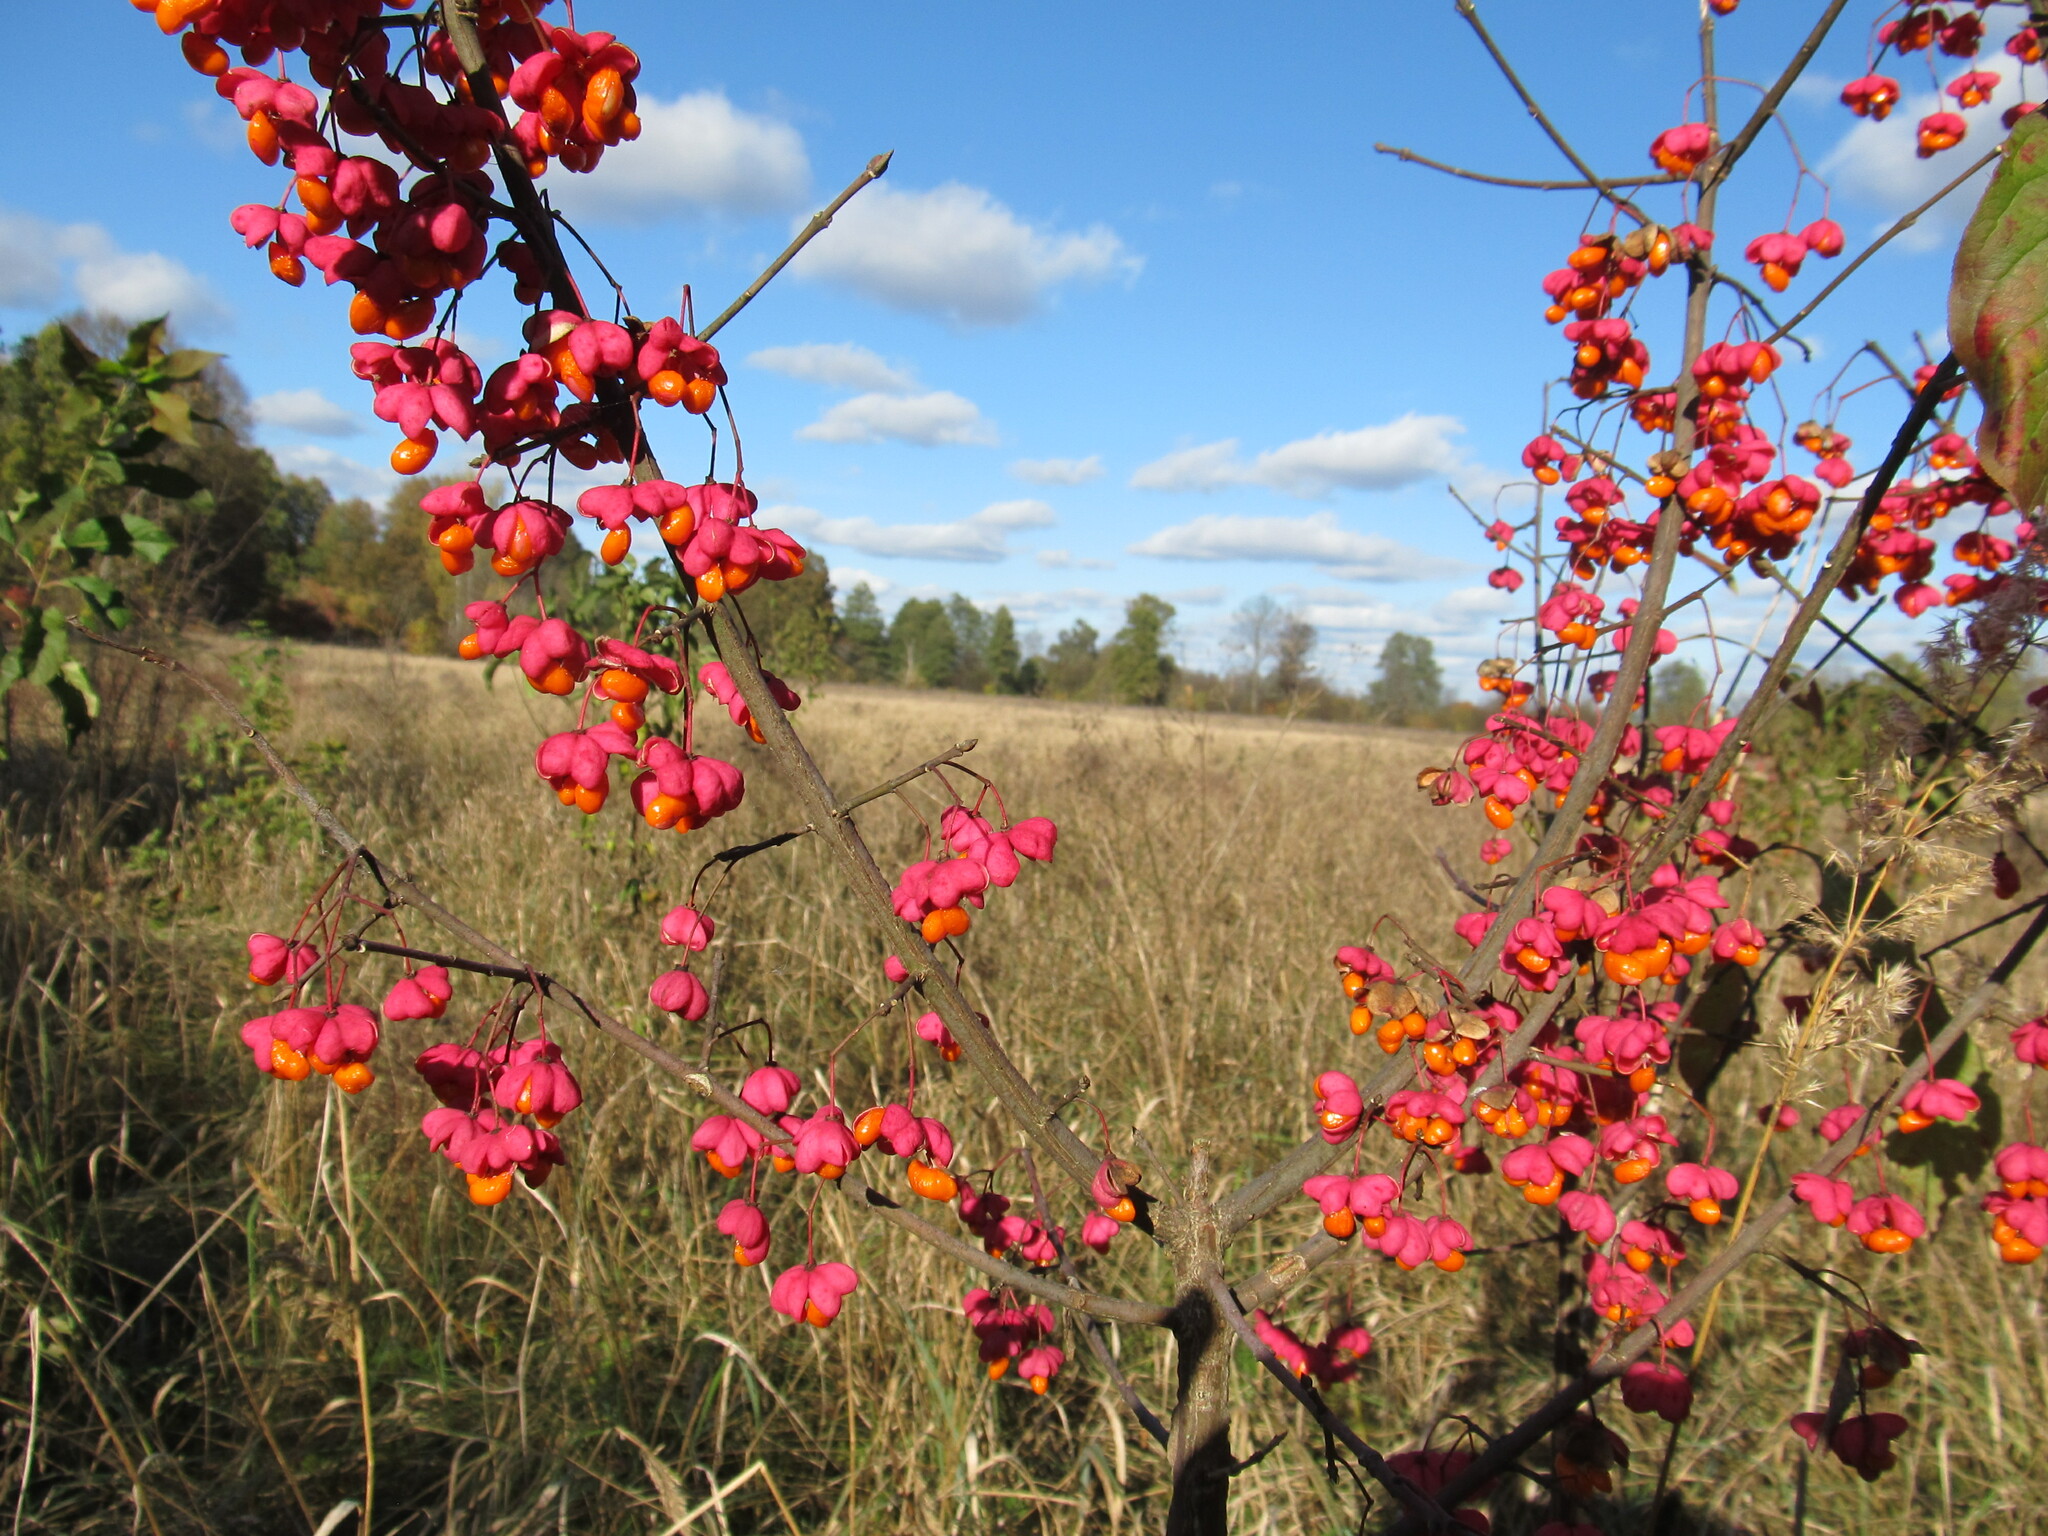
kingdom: Plantae
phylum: Tracheophyta
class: Magnoliopsida
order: Celastrales
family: Celastraceae
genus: Euonymus
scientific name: Euonymus europaeus
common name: Spindle
